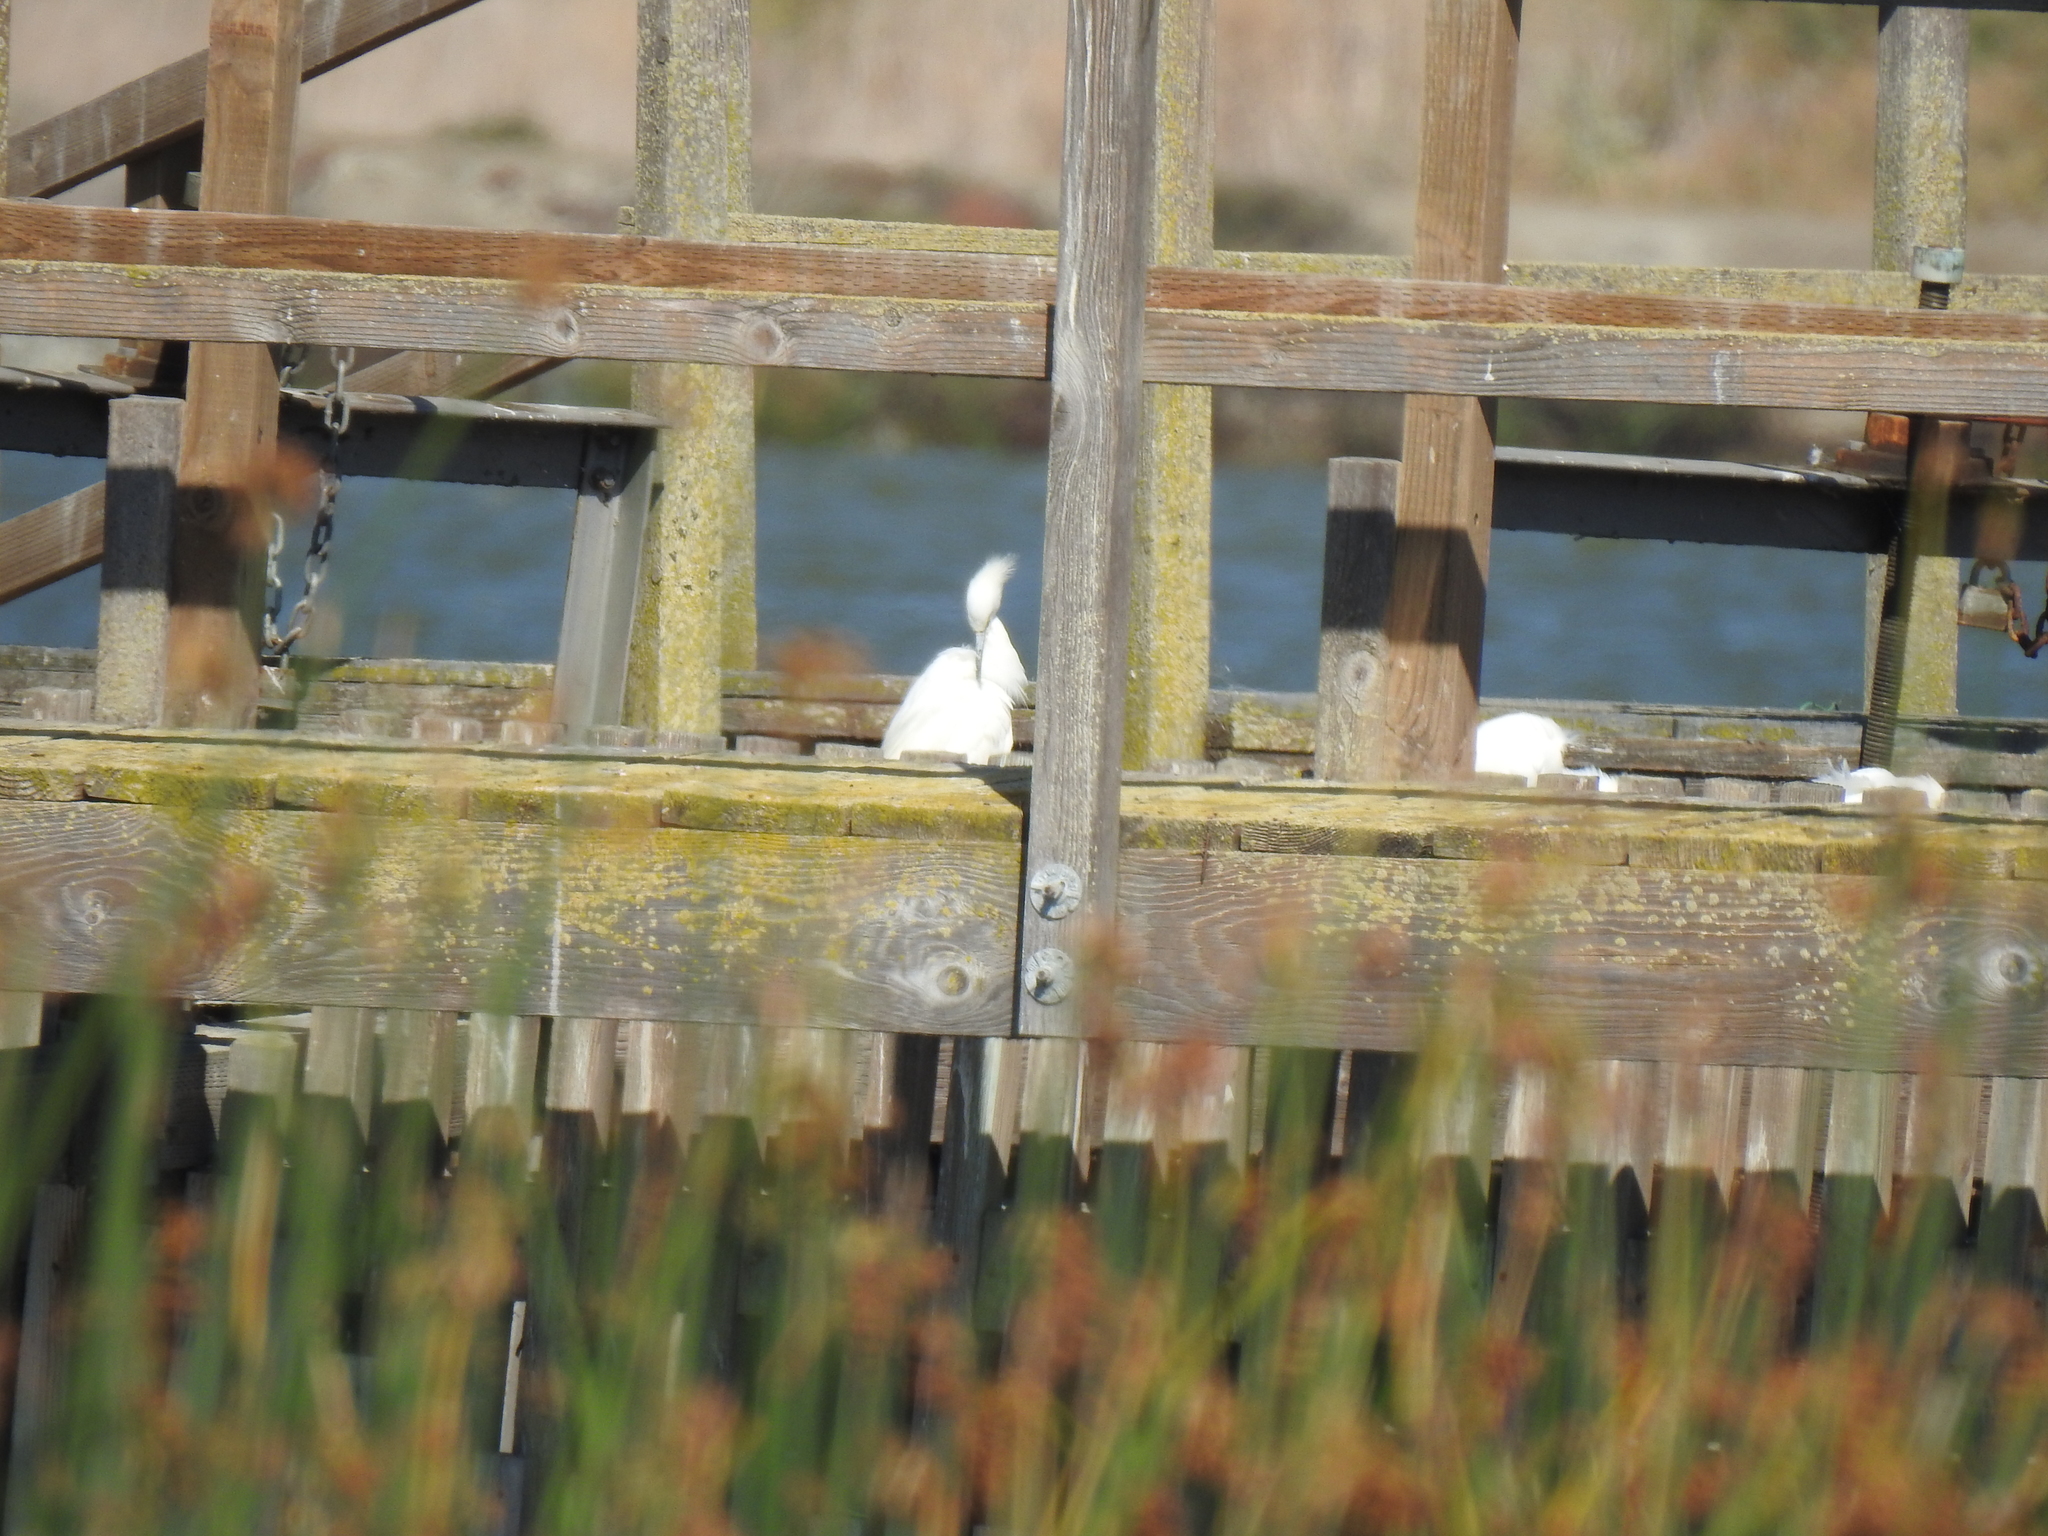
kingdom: Animalia
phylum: Chordata
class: Aves
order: Pelecaniformes
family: Ardeidae
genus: Egretta
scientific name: Egretta thula
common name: Snowy egret
